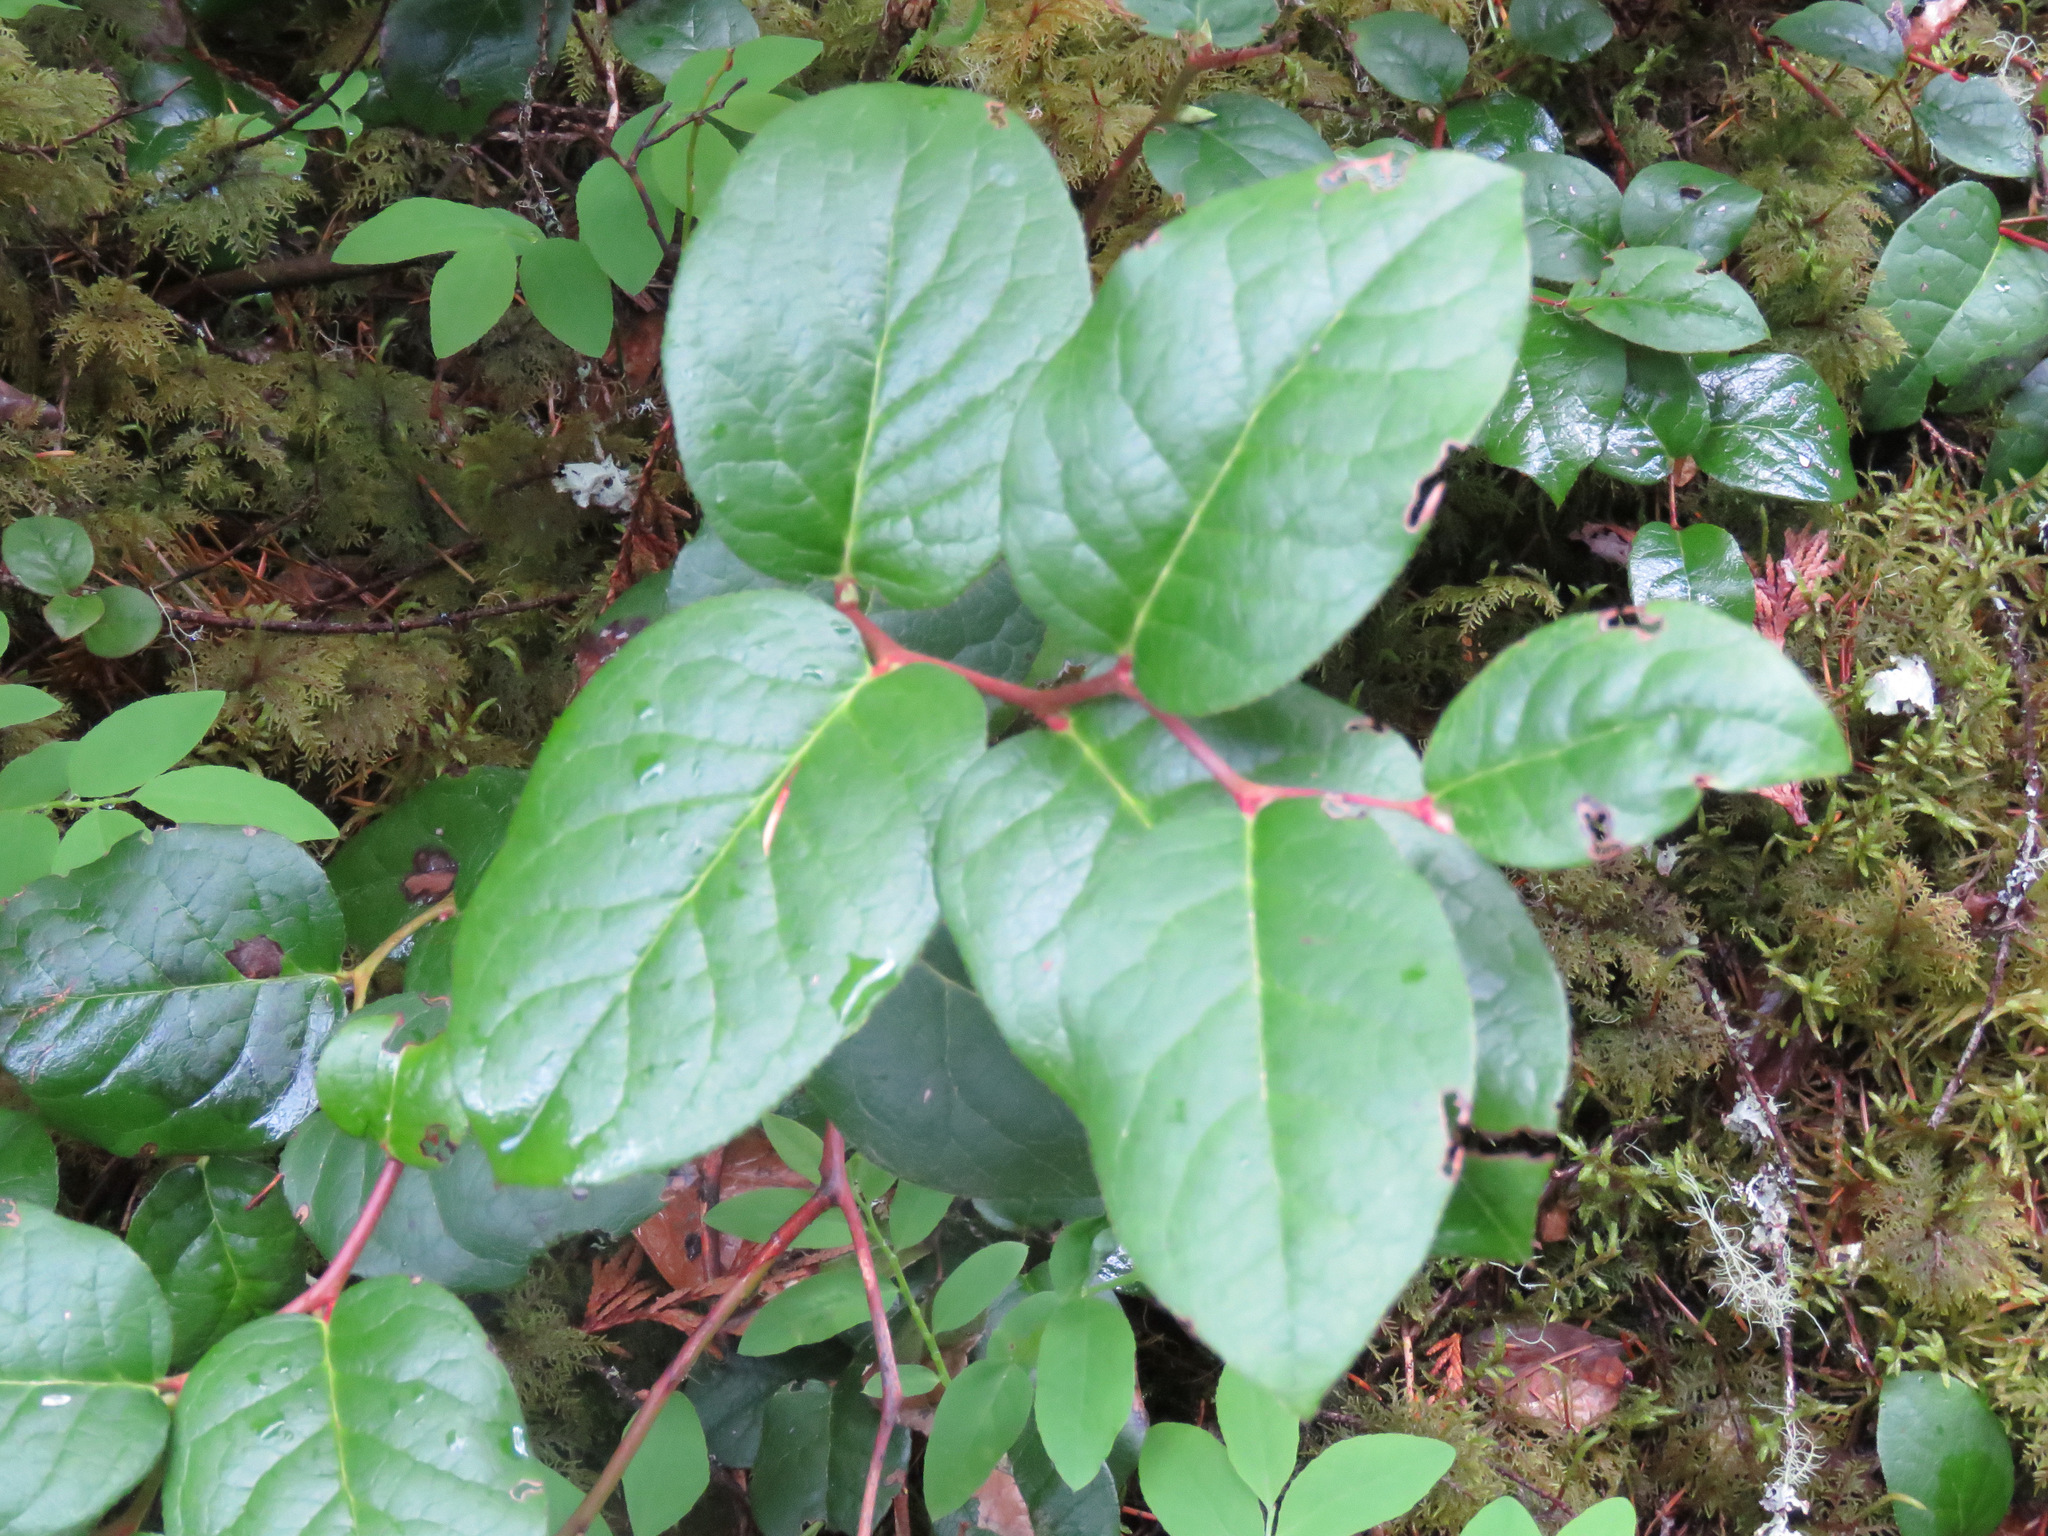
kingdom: Plantae
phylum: Tracheophyta
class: Magnoliopsida
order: Ericales
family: Ericaceae
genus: Gaultheria
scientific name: Gaultheria shallon
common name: Shallon
